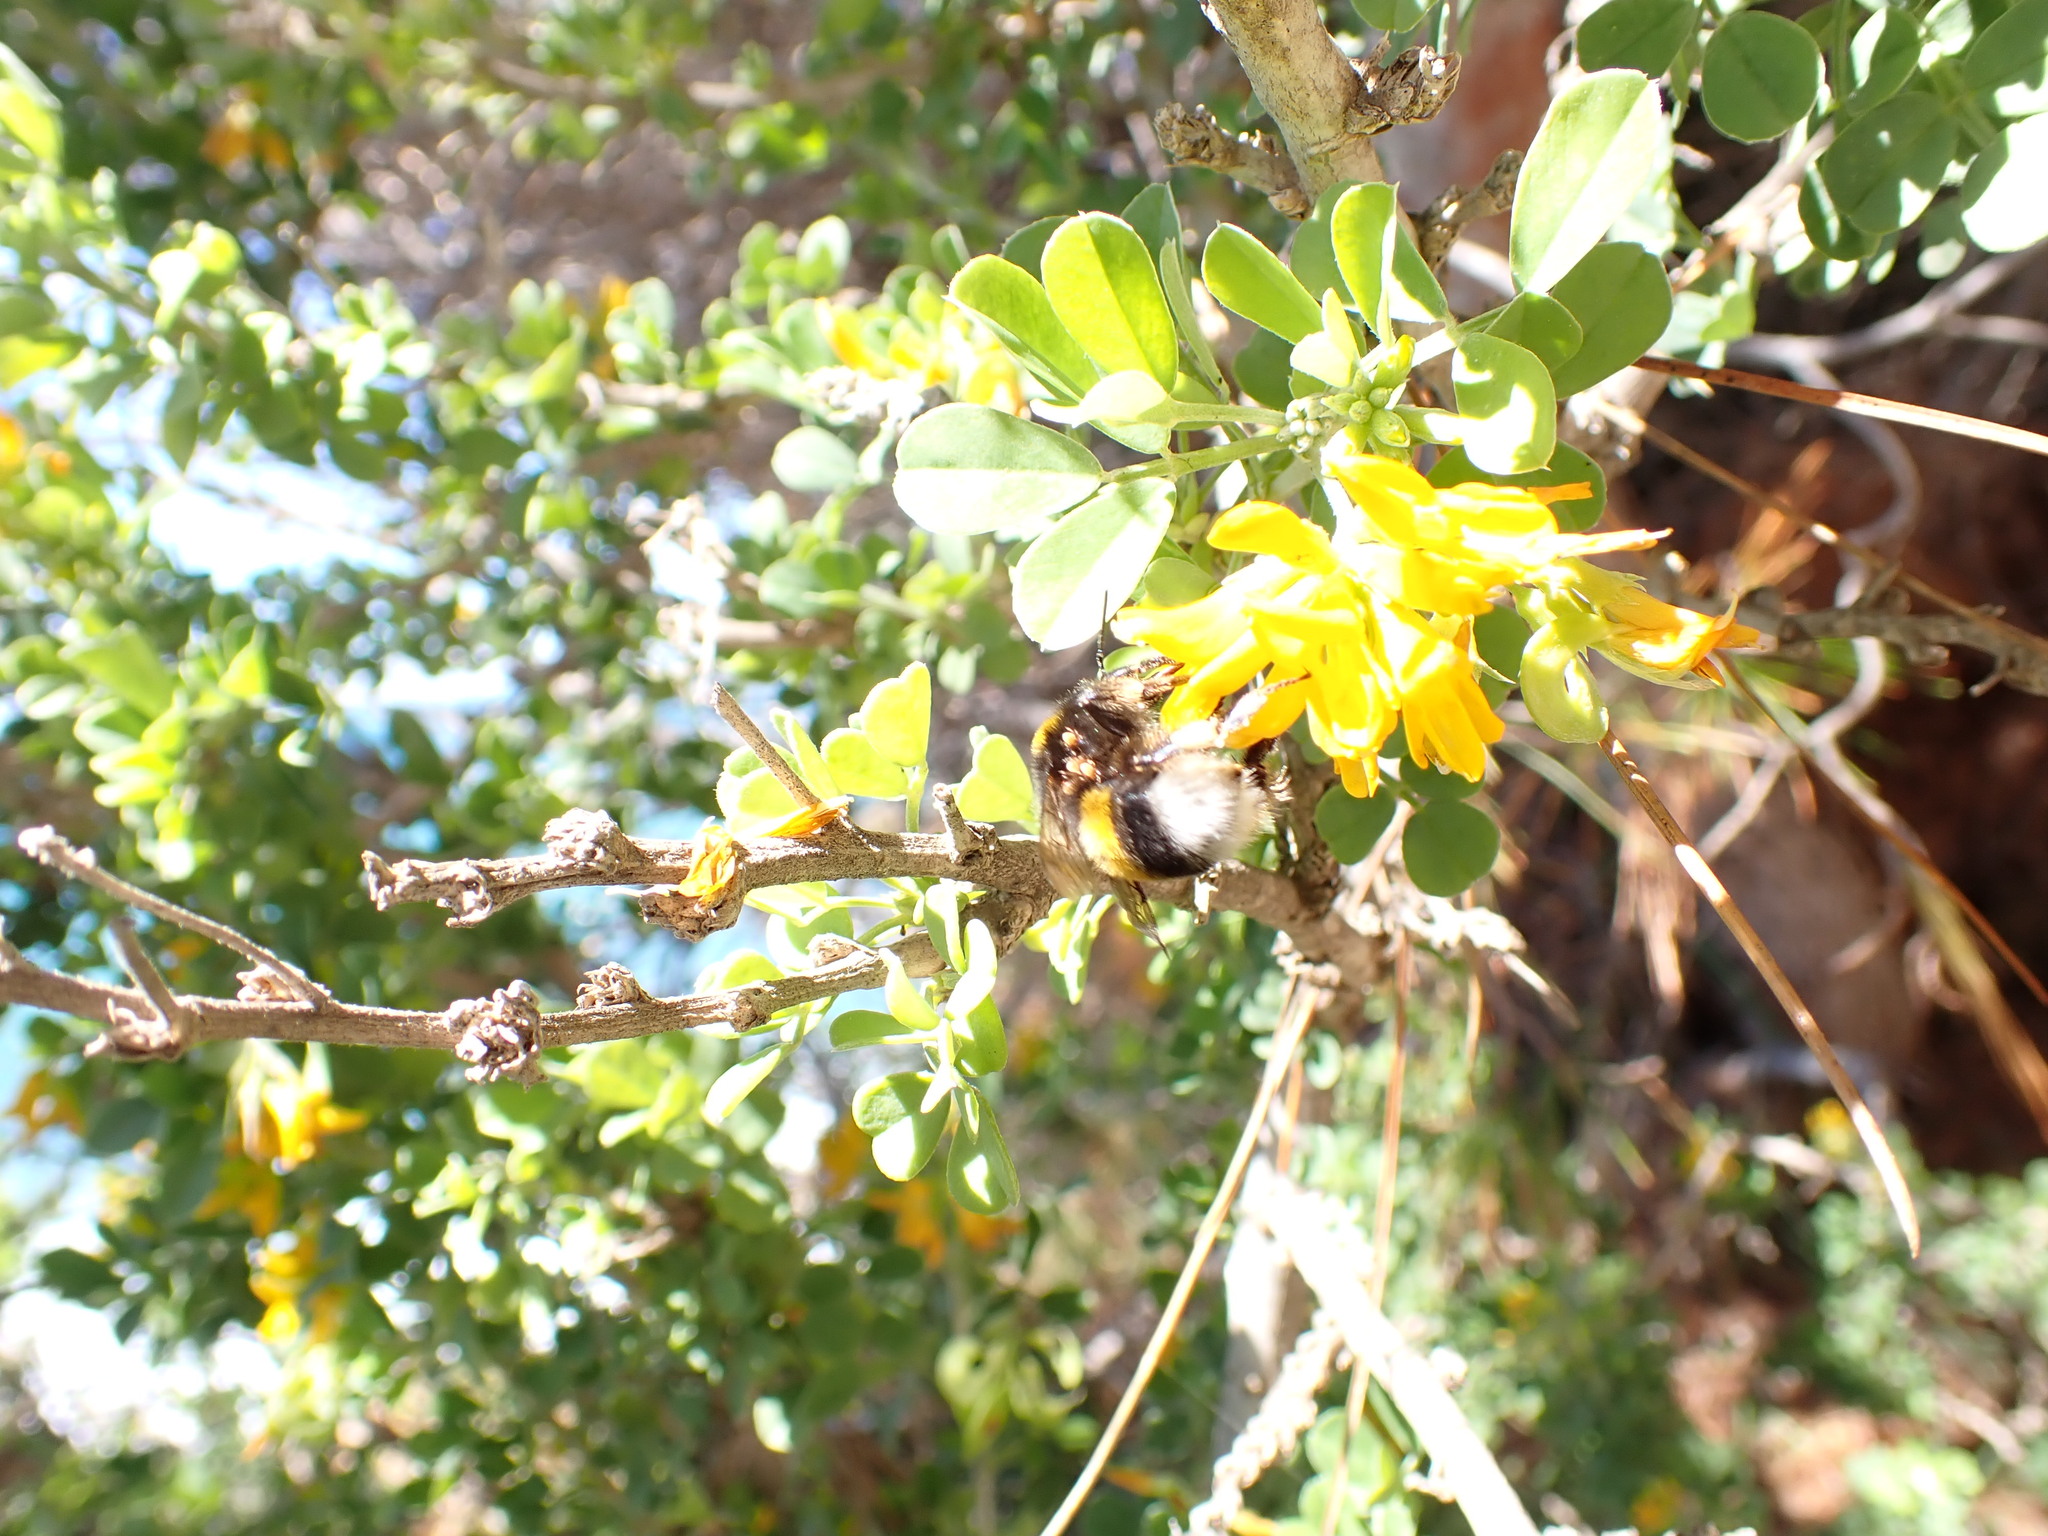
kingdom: Plantae
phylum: Tracheophyta
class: Magnoliopsida
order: Fabales
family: Fabaceae
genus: Medicago
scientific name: Medicago arborea
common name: Moon trefoil
